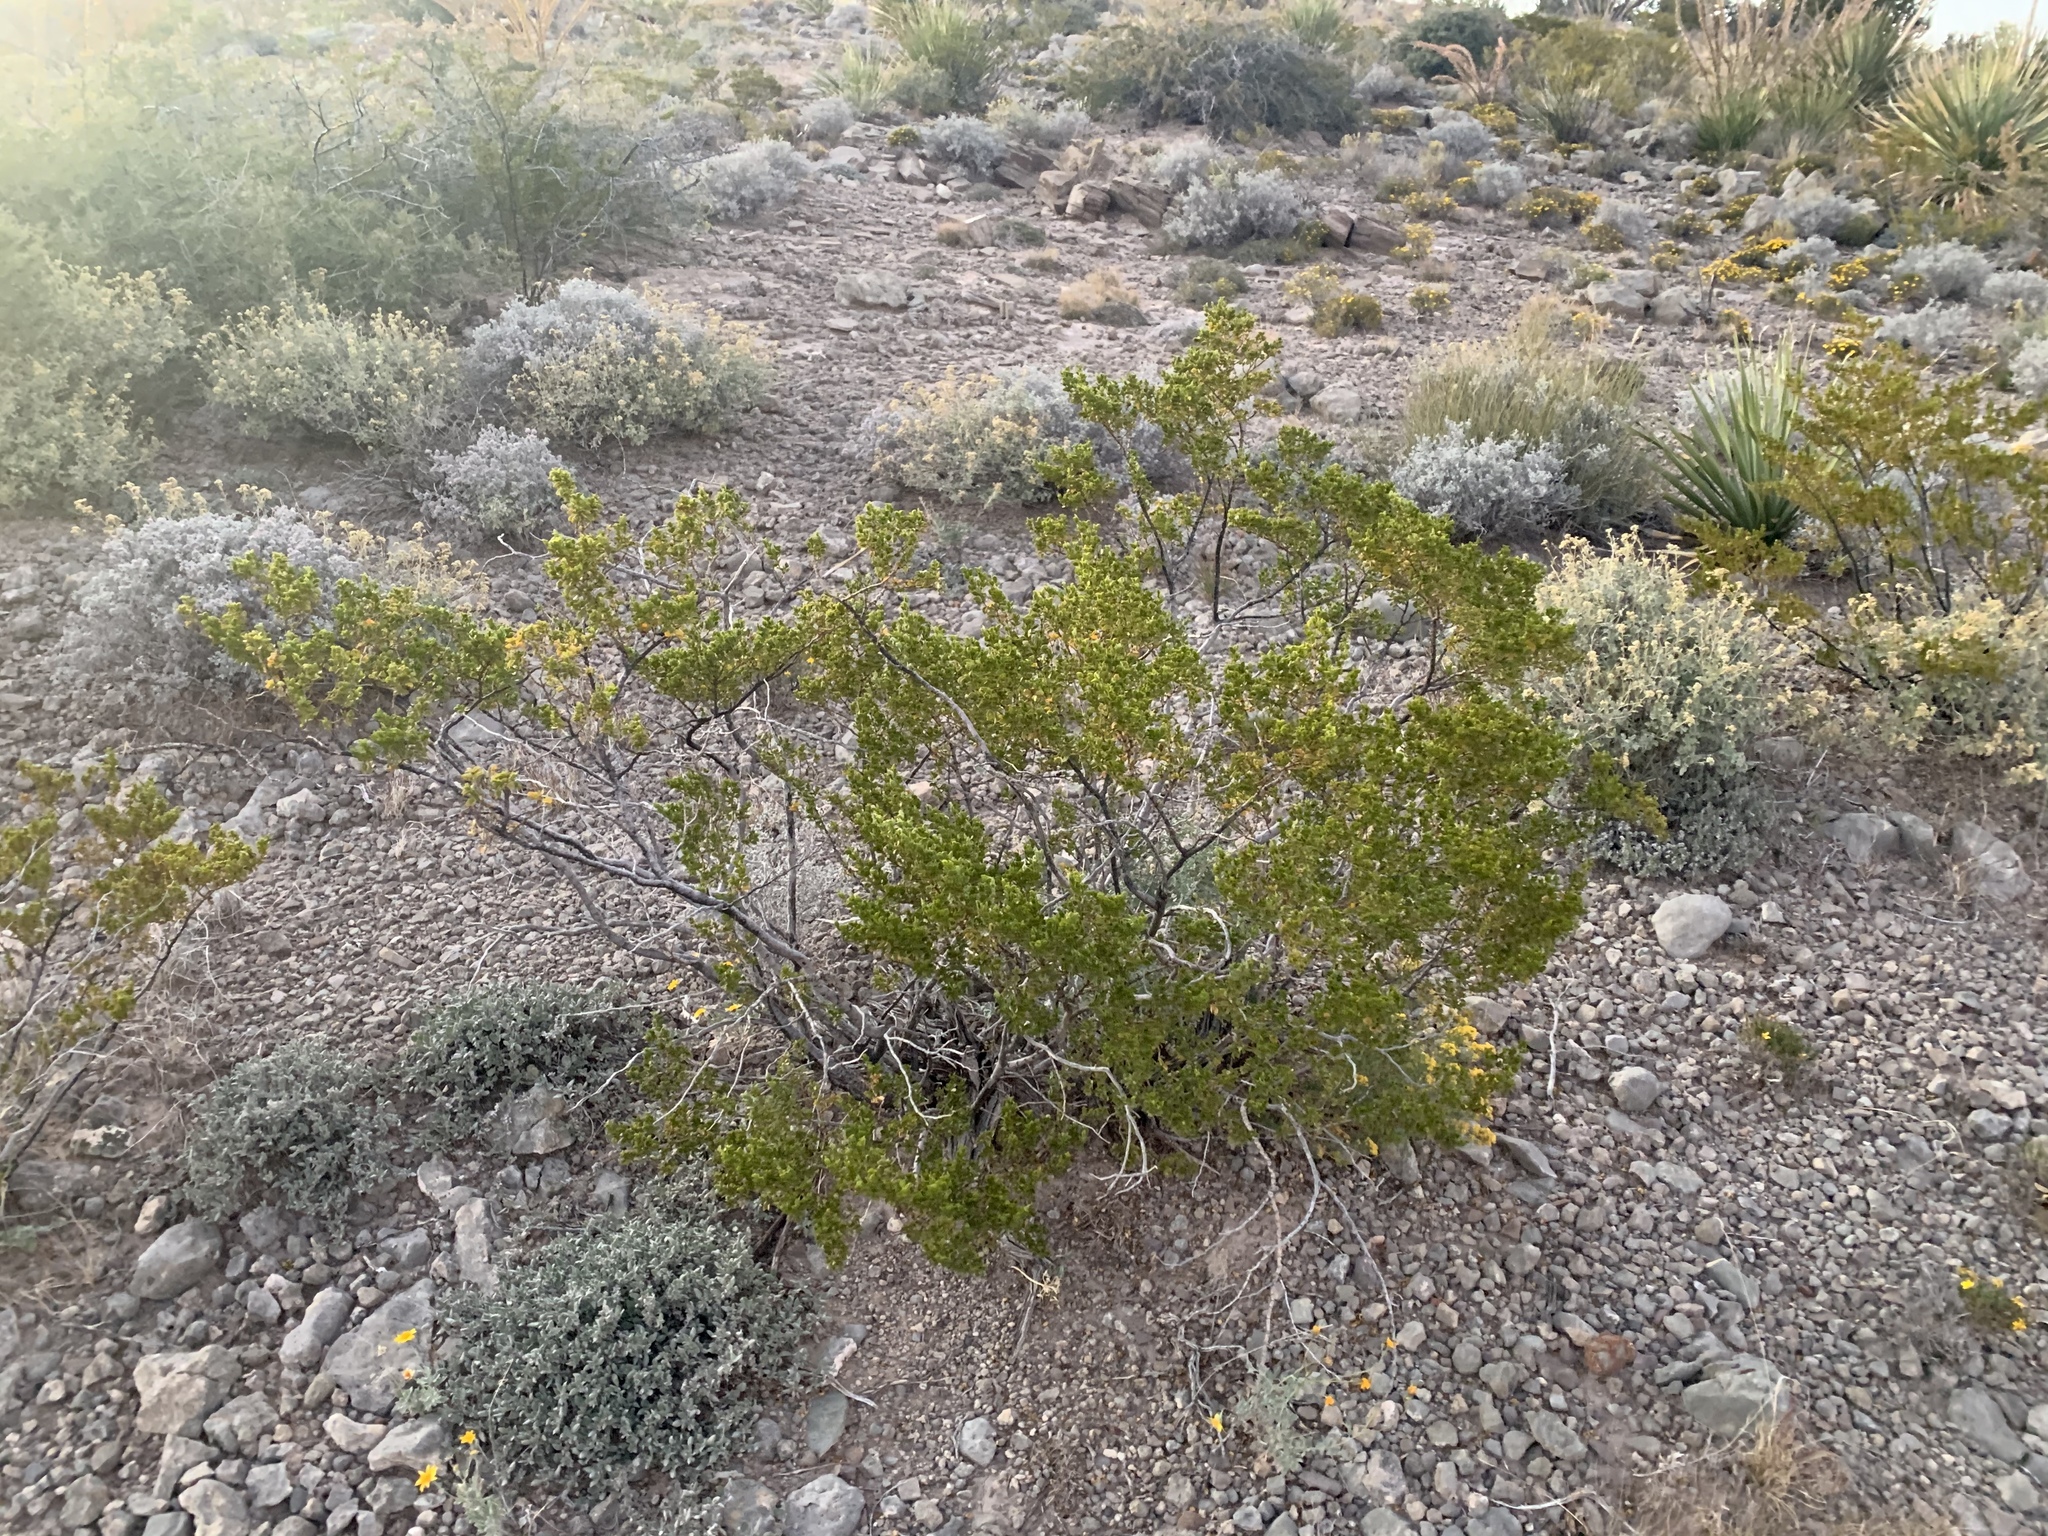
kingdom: Plantae
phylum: Tracheophyta
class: Magnoliopsida
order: Zygophyllales
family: Zygophyllaceae
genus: Larrea
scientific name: Larrea tridentata
